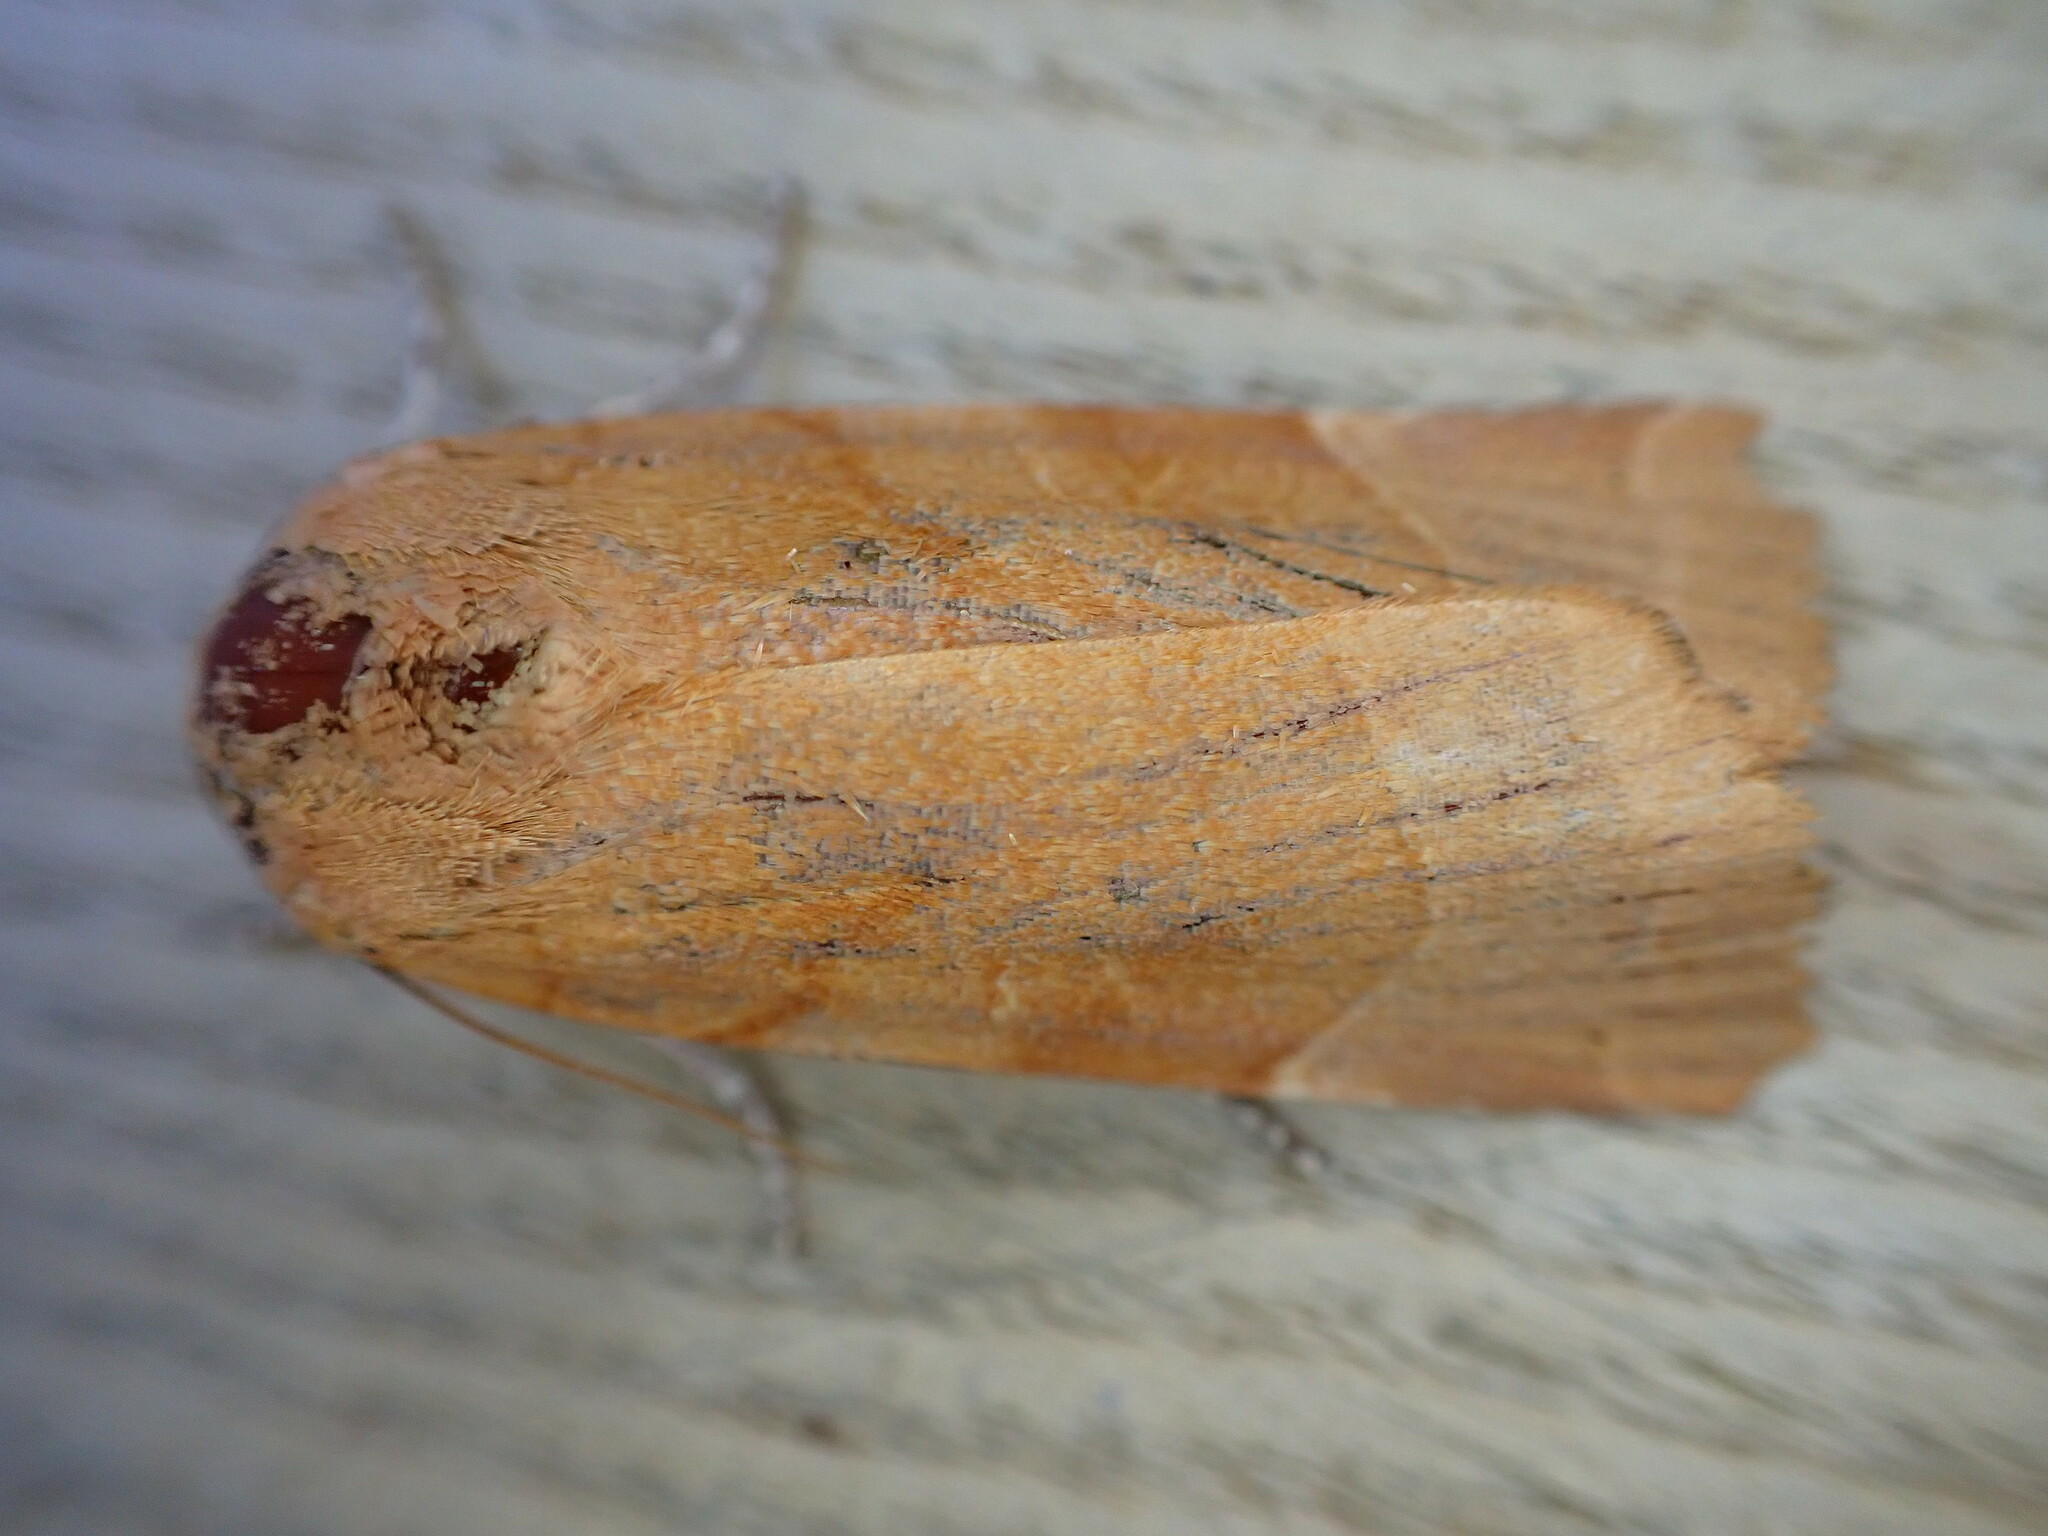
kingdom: Animalia
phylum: Arthropoda
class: Insecta
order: Lepidoptera
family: Noctuidae
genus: Noctua
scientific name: Noctua fimbriata
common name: Broad-bordered yellow underwing
